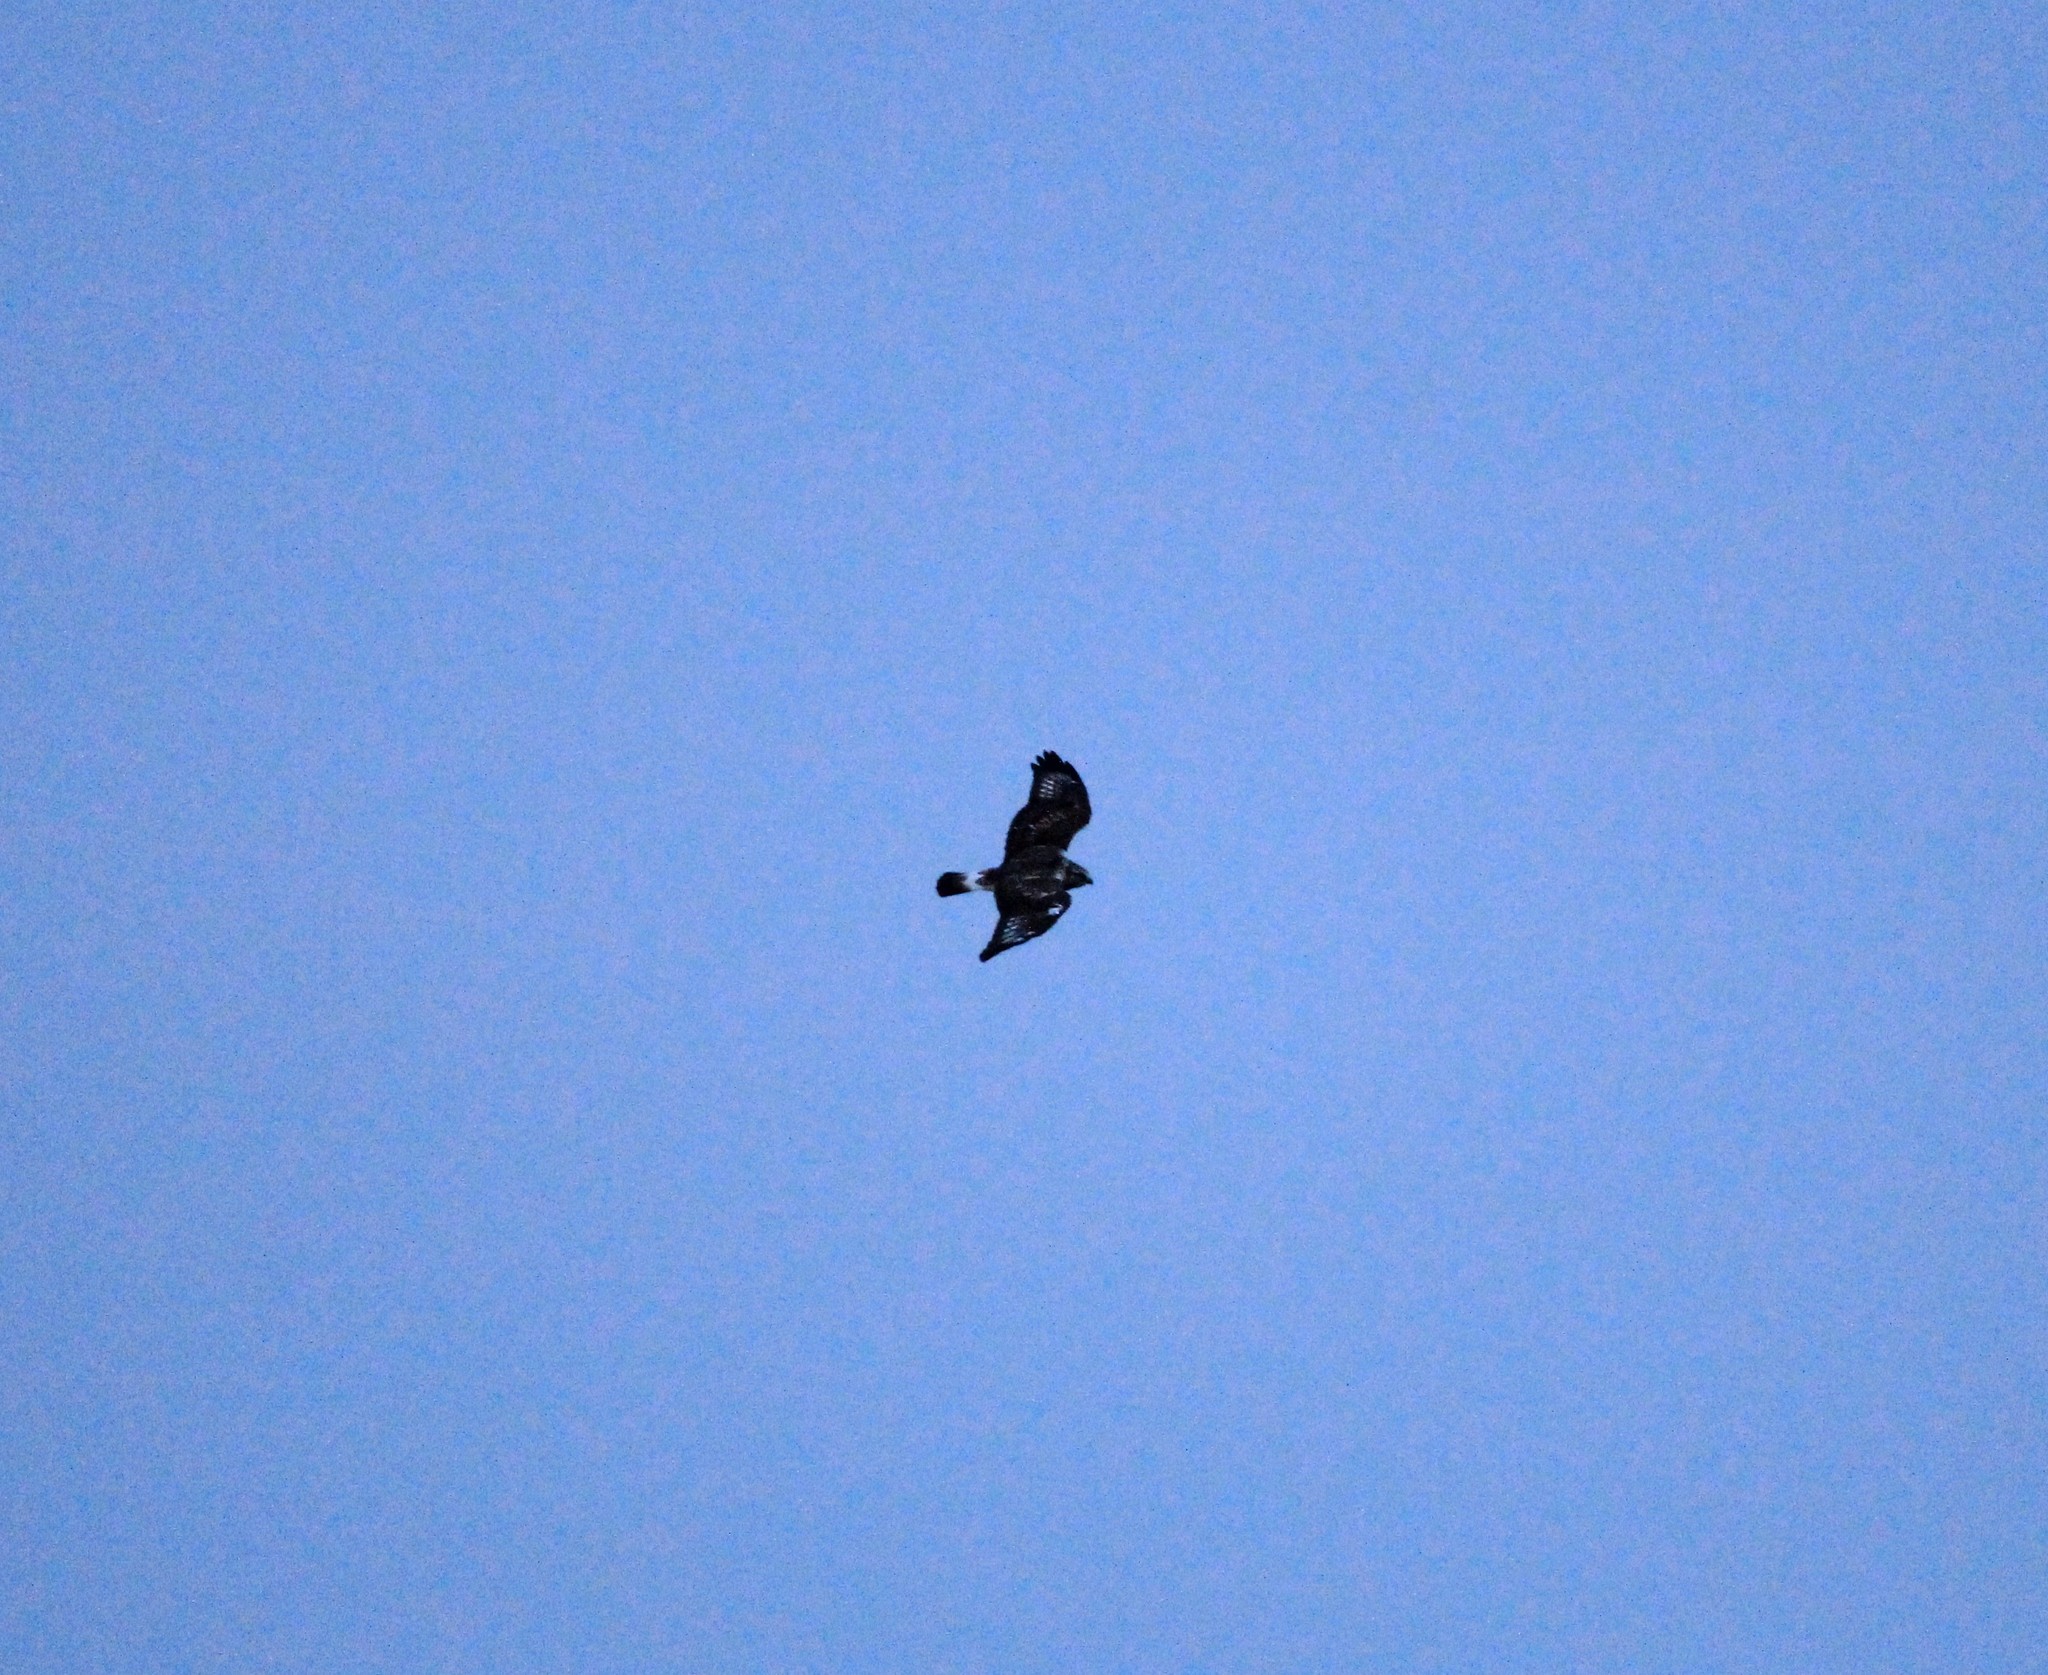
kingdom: Animalia
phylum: Chordata
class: Aves
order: Accipitriformes
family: Accipitridae
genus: Buteo
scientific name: Buteo lagopus
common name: Rough-legged buzzard
